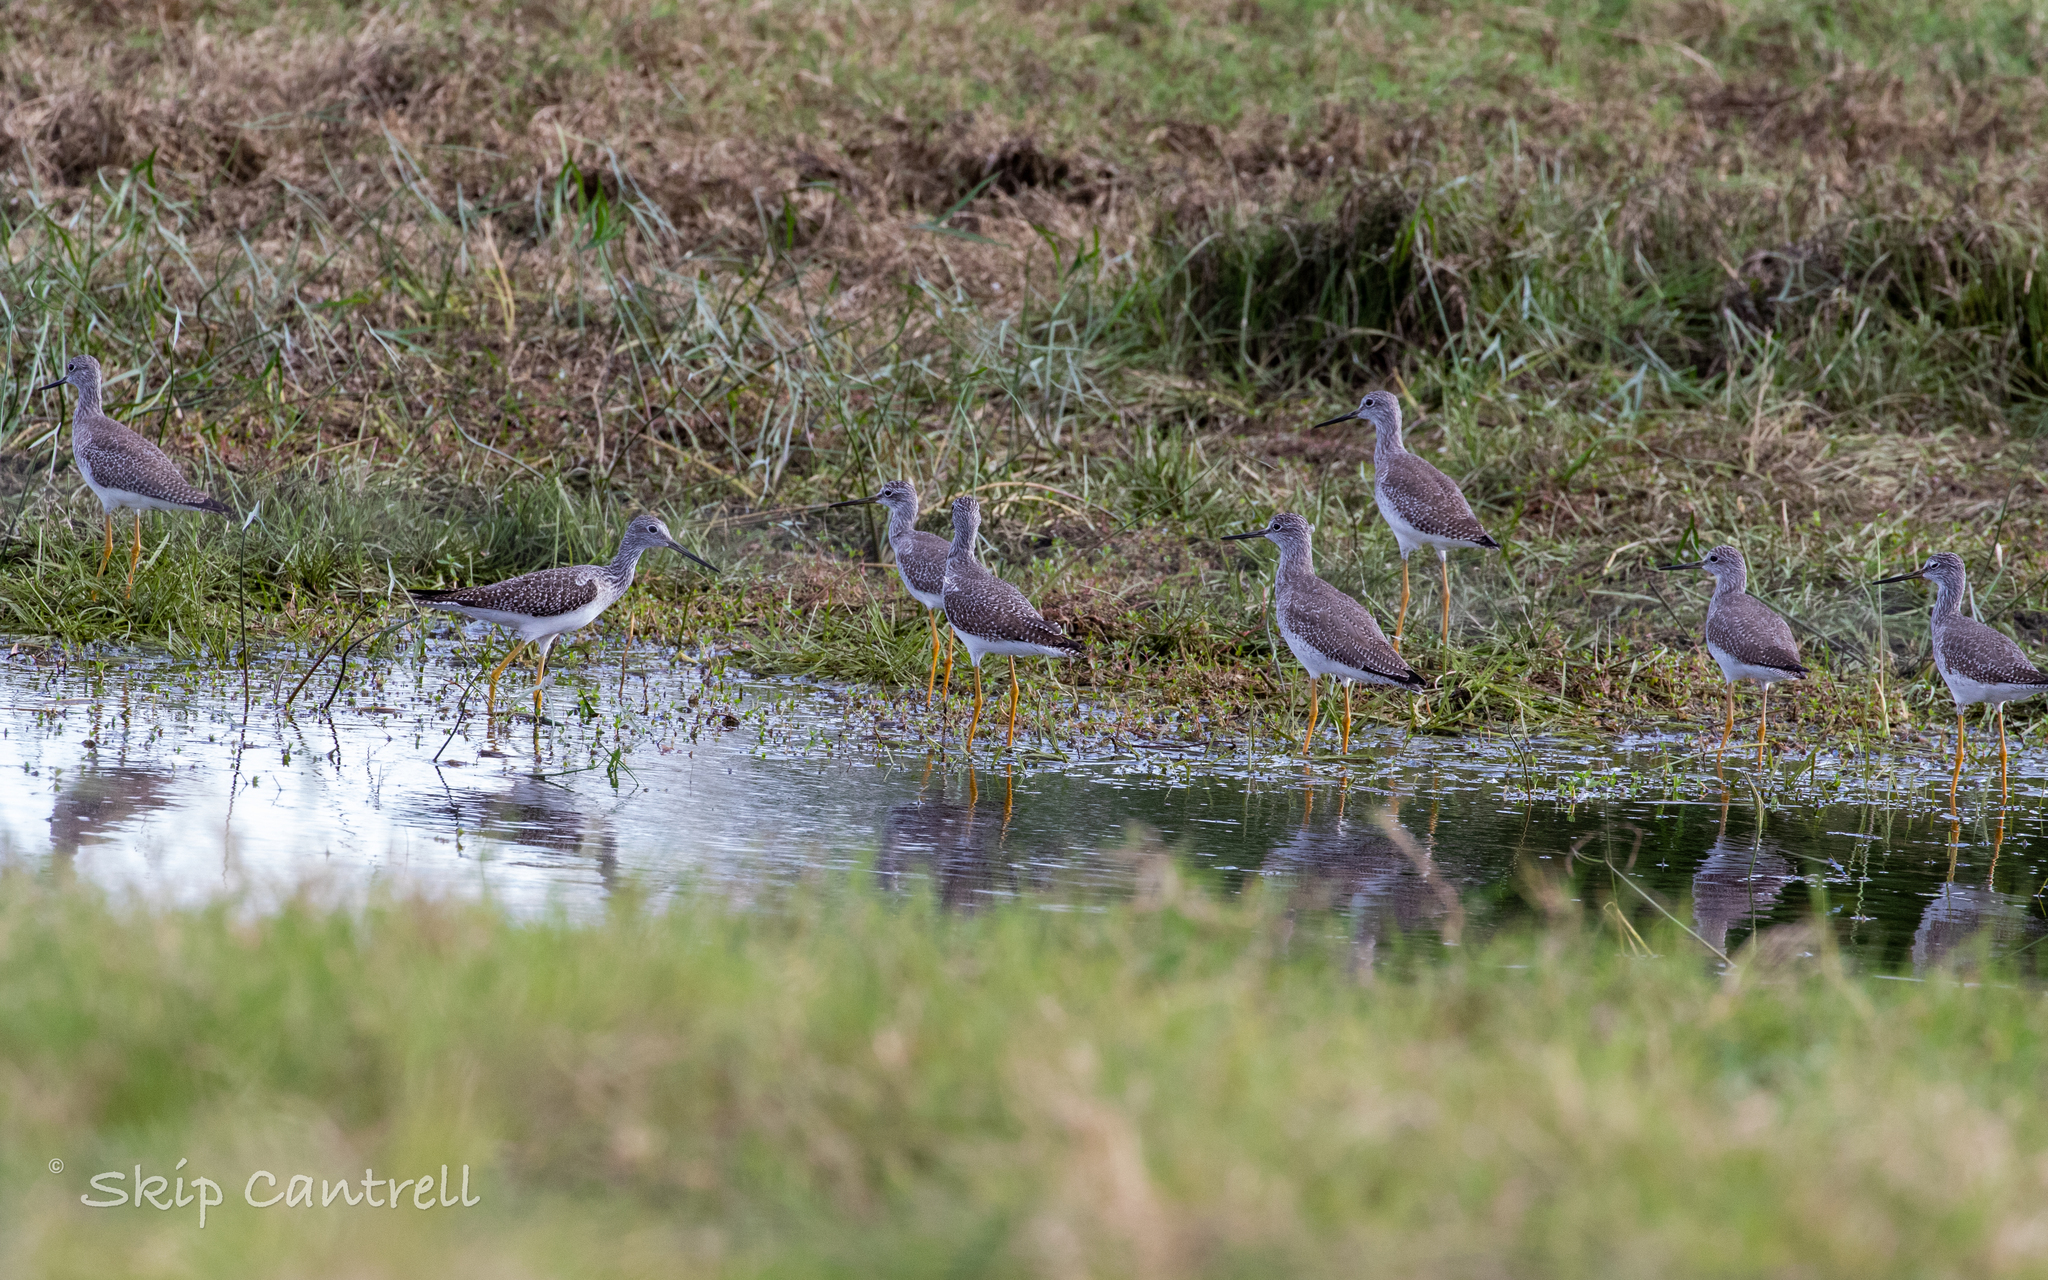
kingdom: Animalia
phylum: Chordata
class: Aves
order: Charadriiformes
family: Scolopacidae
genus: Tringa
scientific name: Tringa melanoleuca
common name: Greater yellowlegs
